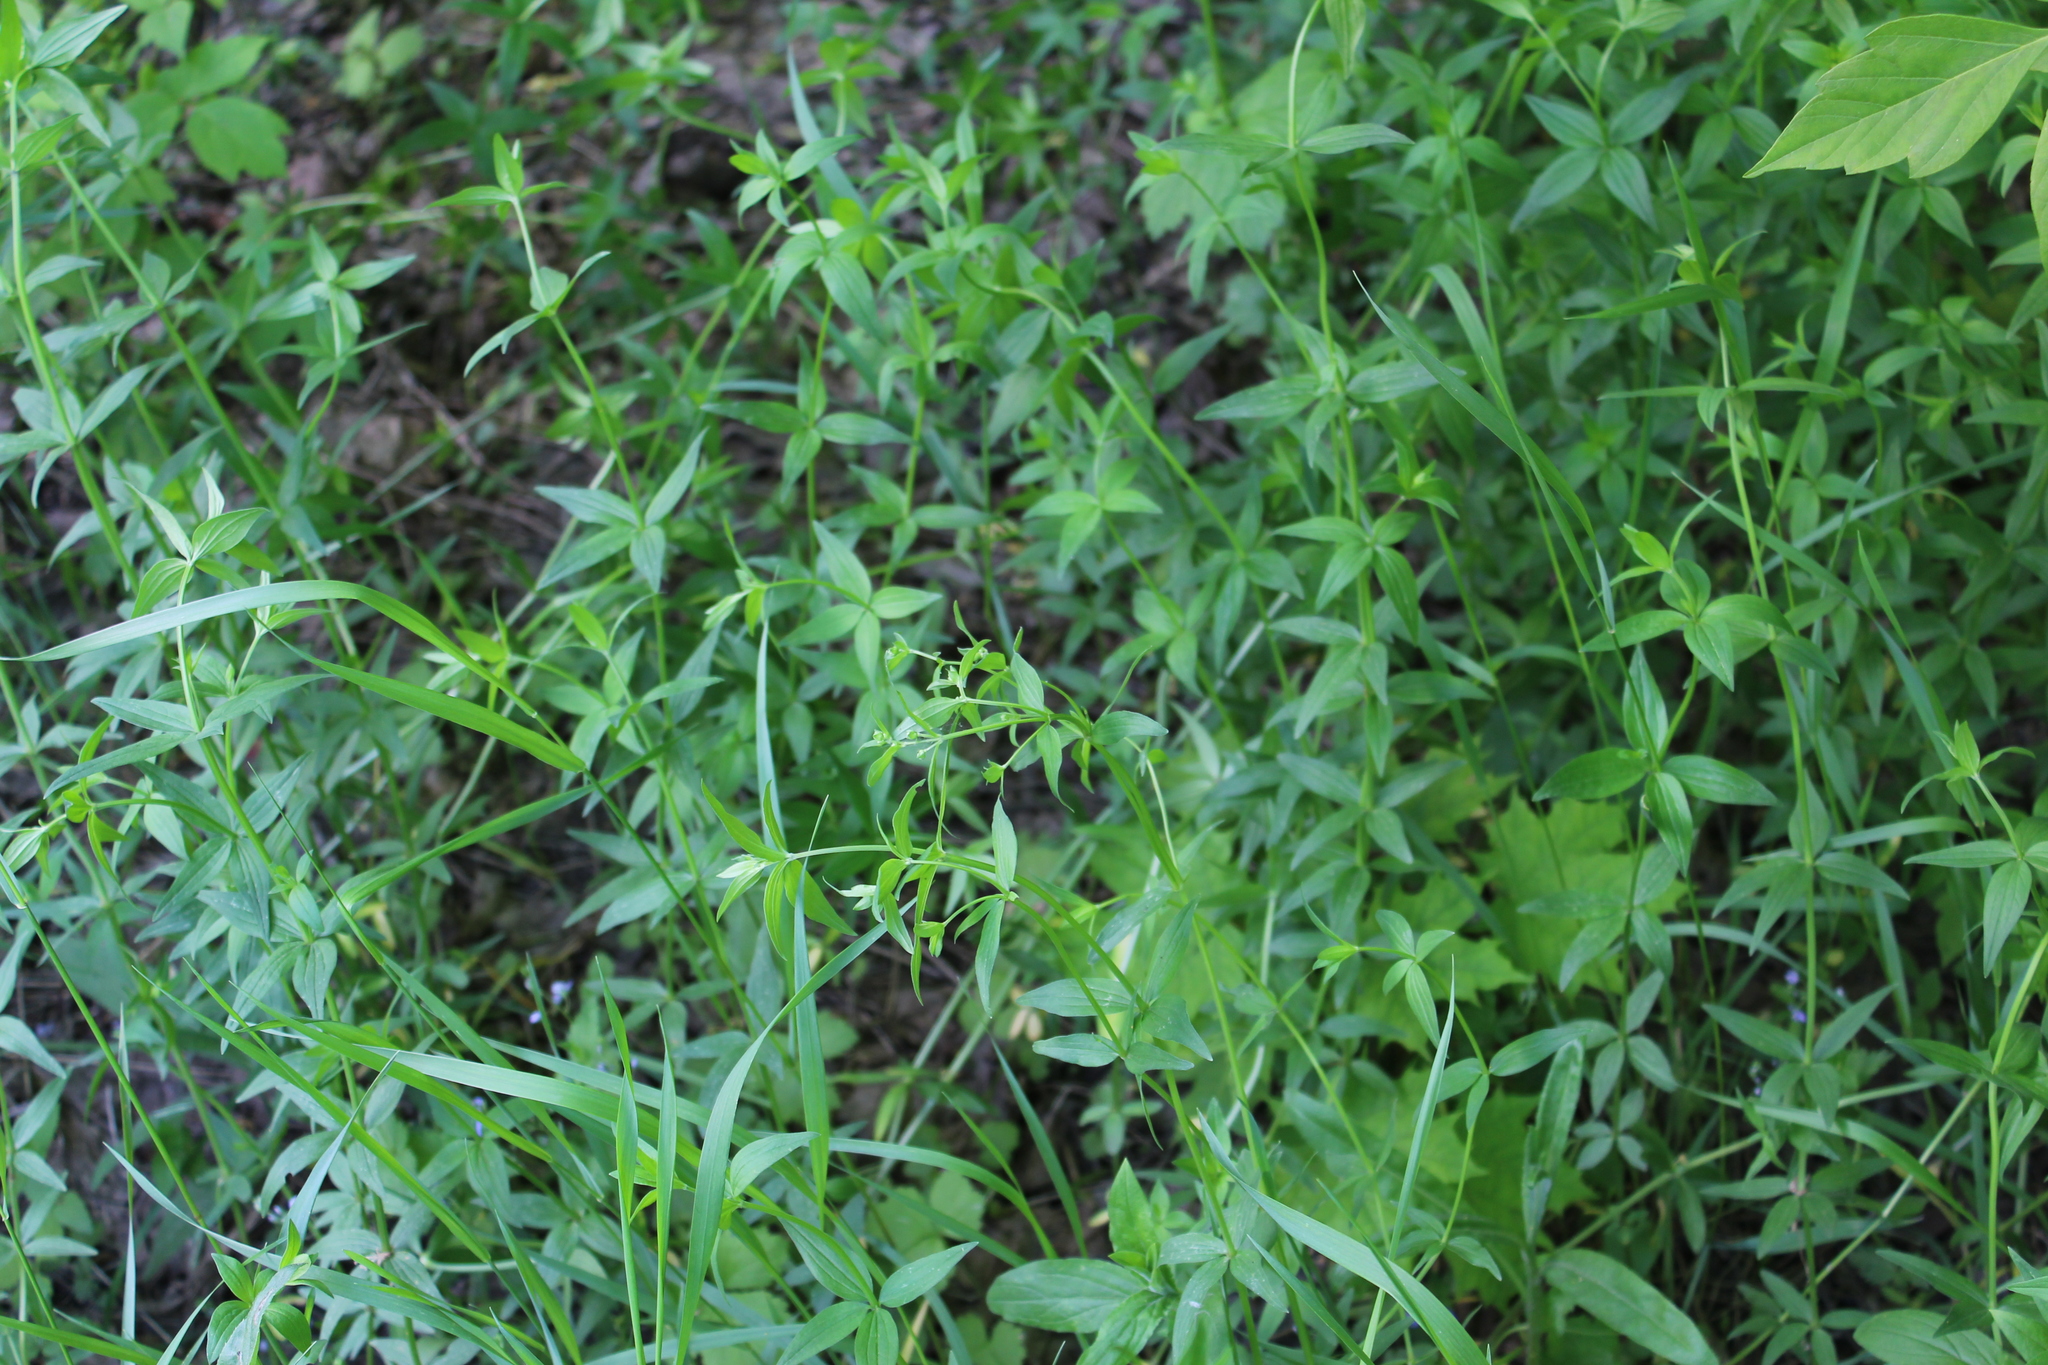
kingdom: Plantae
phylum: Tracheophyta
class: Magnoliopsida
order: Gentianales
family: Rubiaceae
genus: Galium
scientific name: Galium boreale
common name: Northern bedstraw
